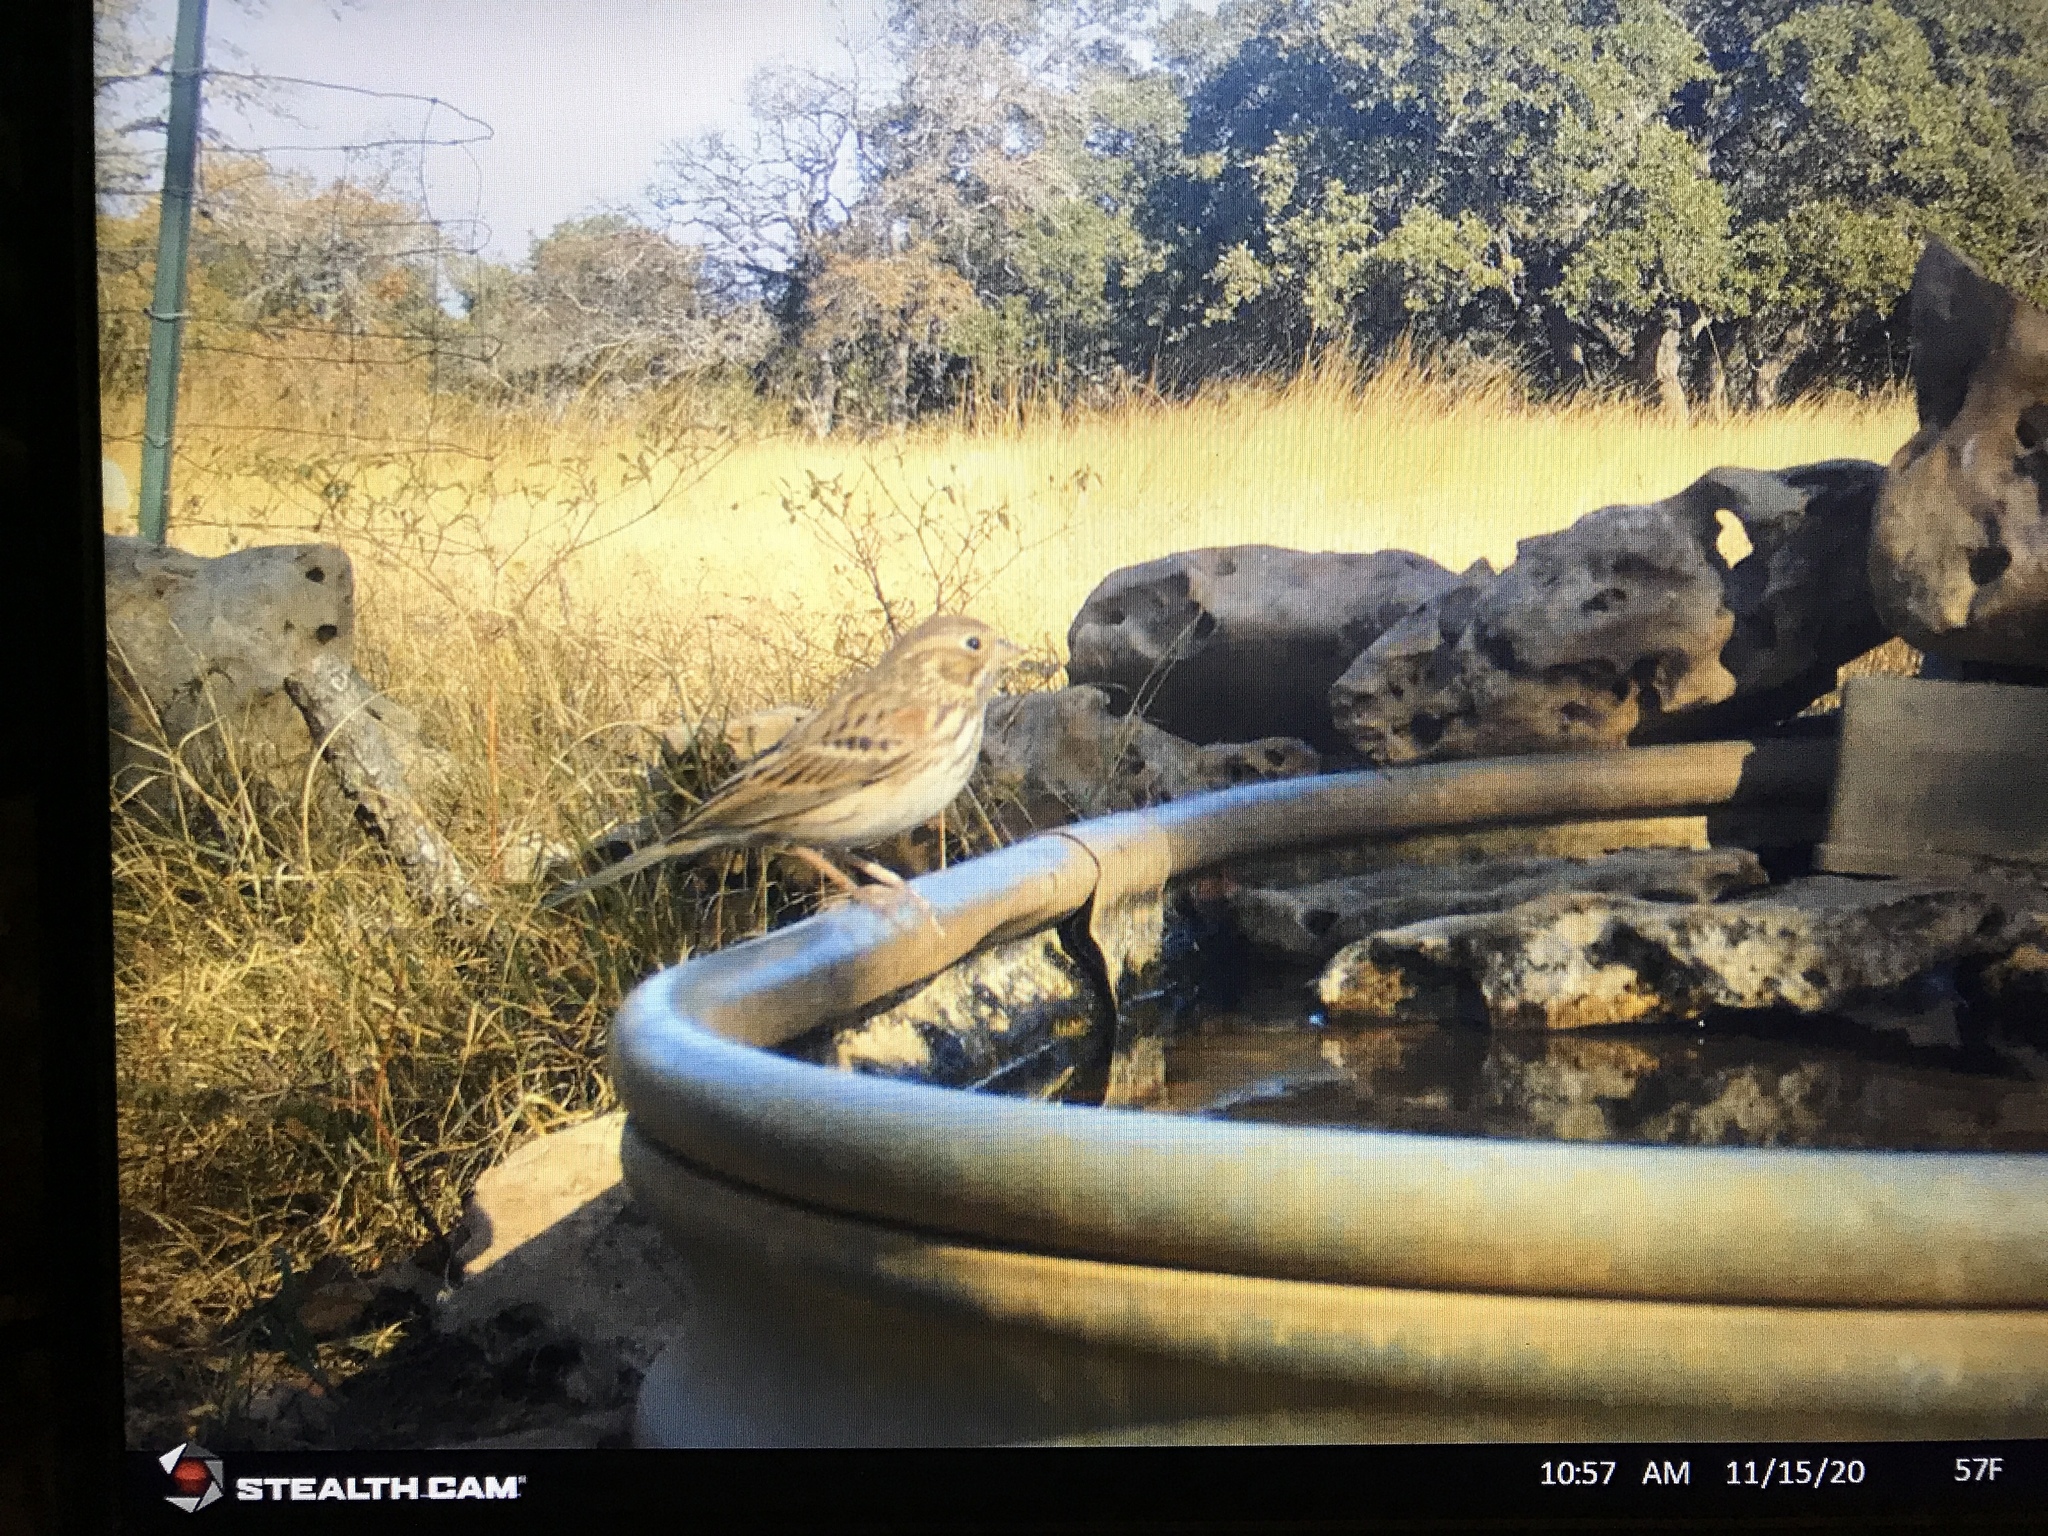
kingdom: Animalia
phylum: Chordata
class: Aves
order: Passeriformes
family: Passerellidae
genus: Pooecetes
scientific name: Pooecetes gramineus
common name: Vesper sparrow
